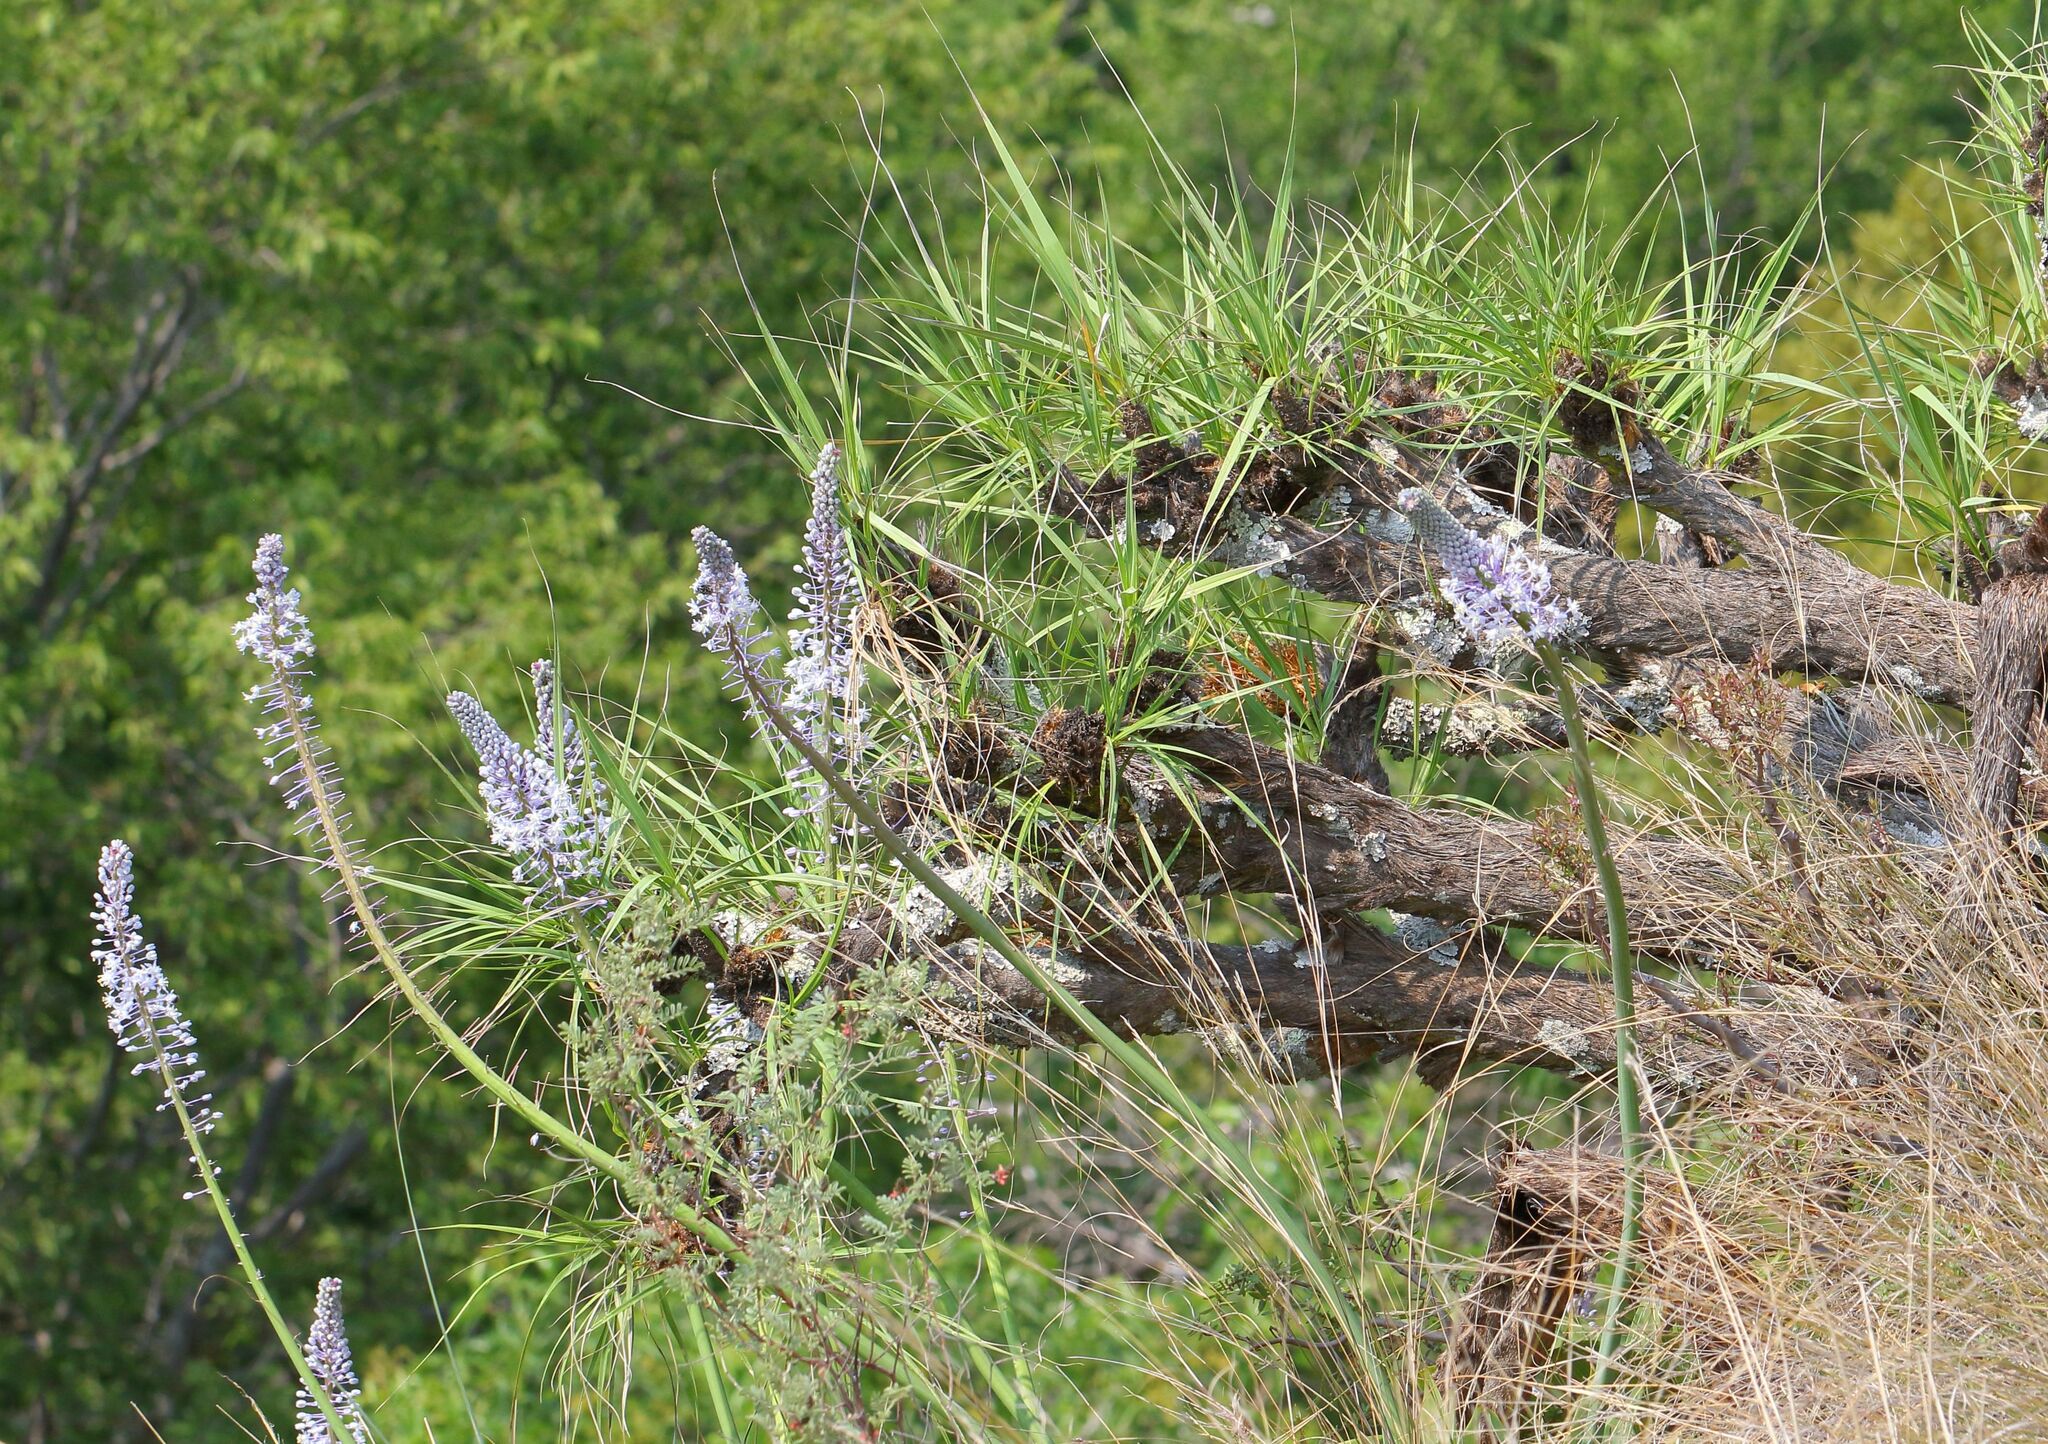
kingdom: Plantae
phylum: Tracheophyta
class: Liliopsida
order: Asparagales
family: Asparagaceae
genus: Merwilla
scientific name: Merwilla plumbea
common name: Blue-squill
